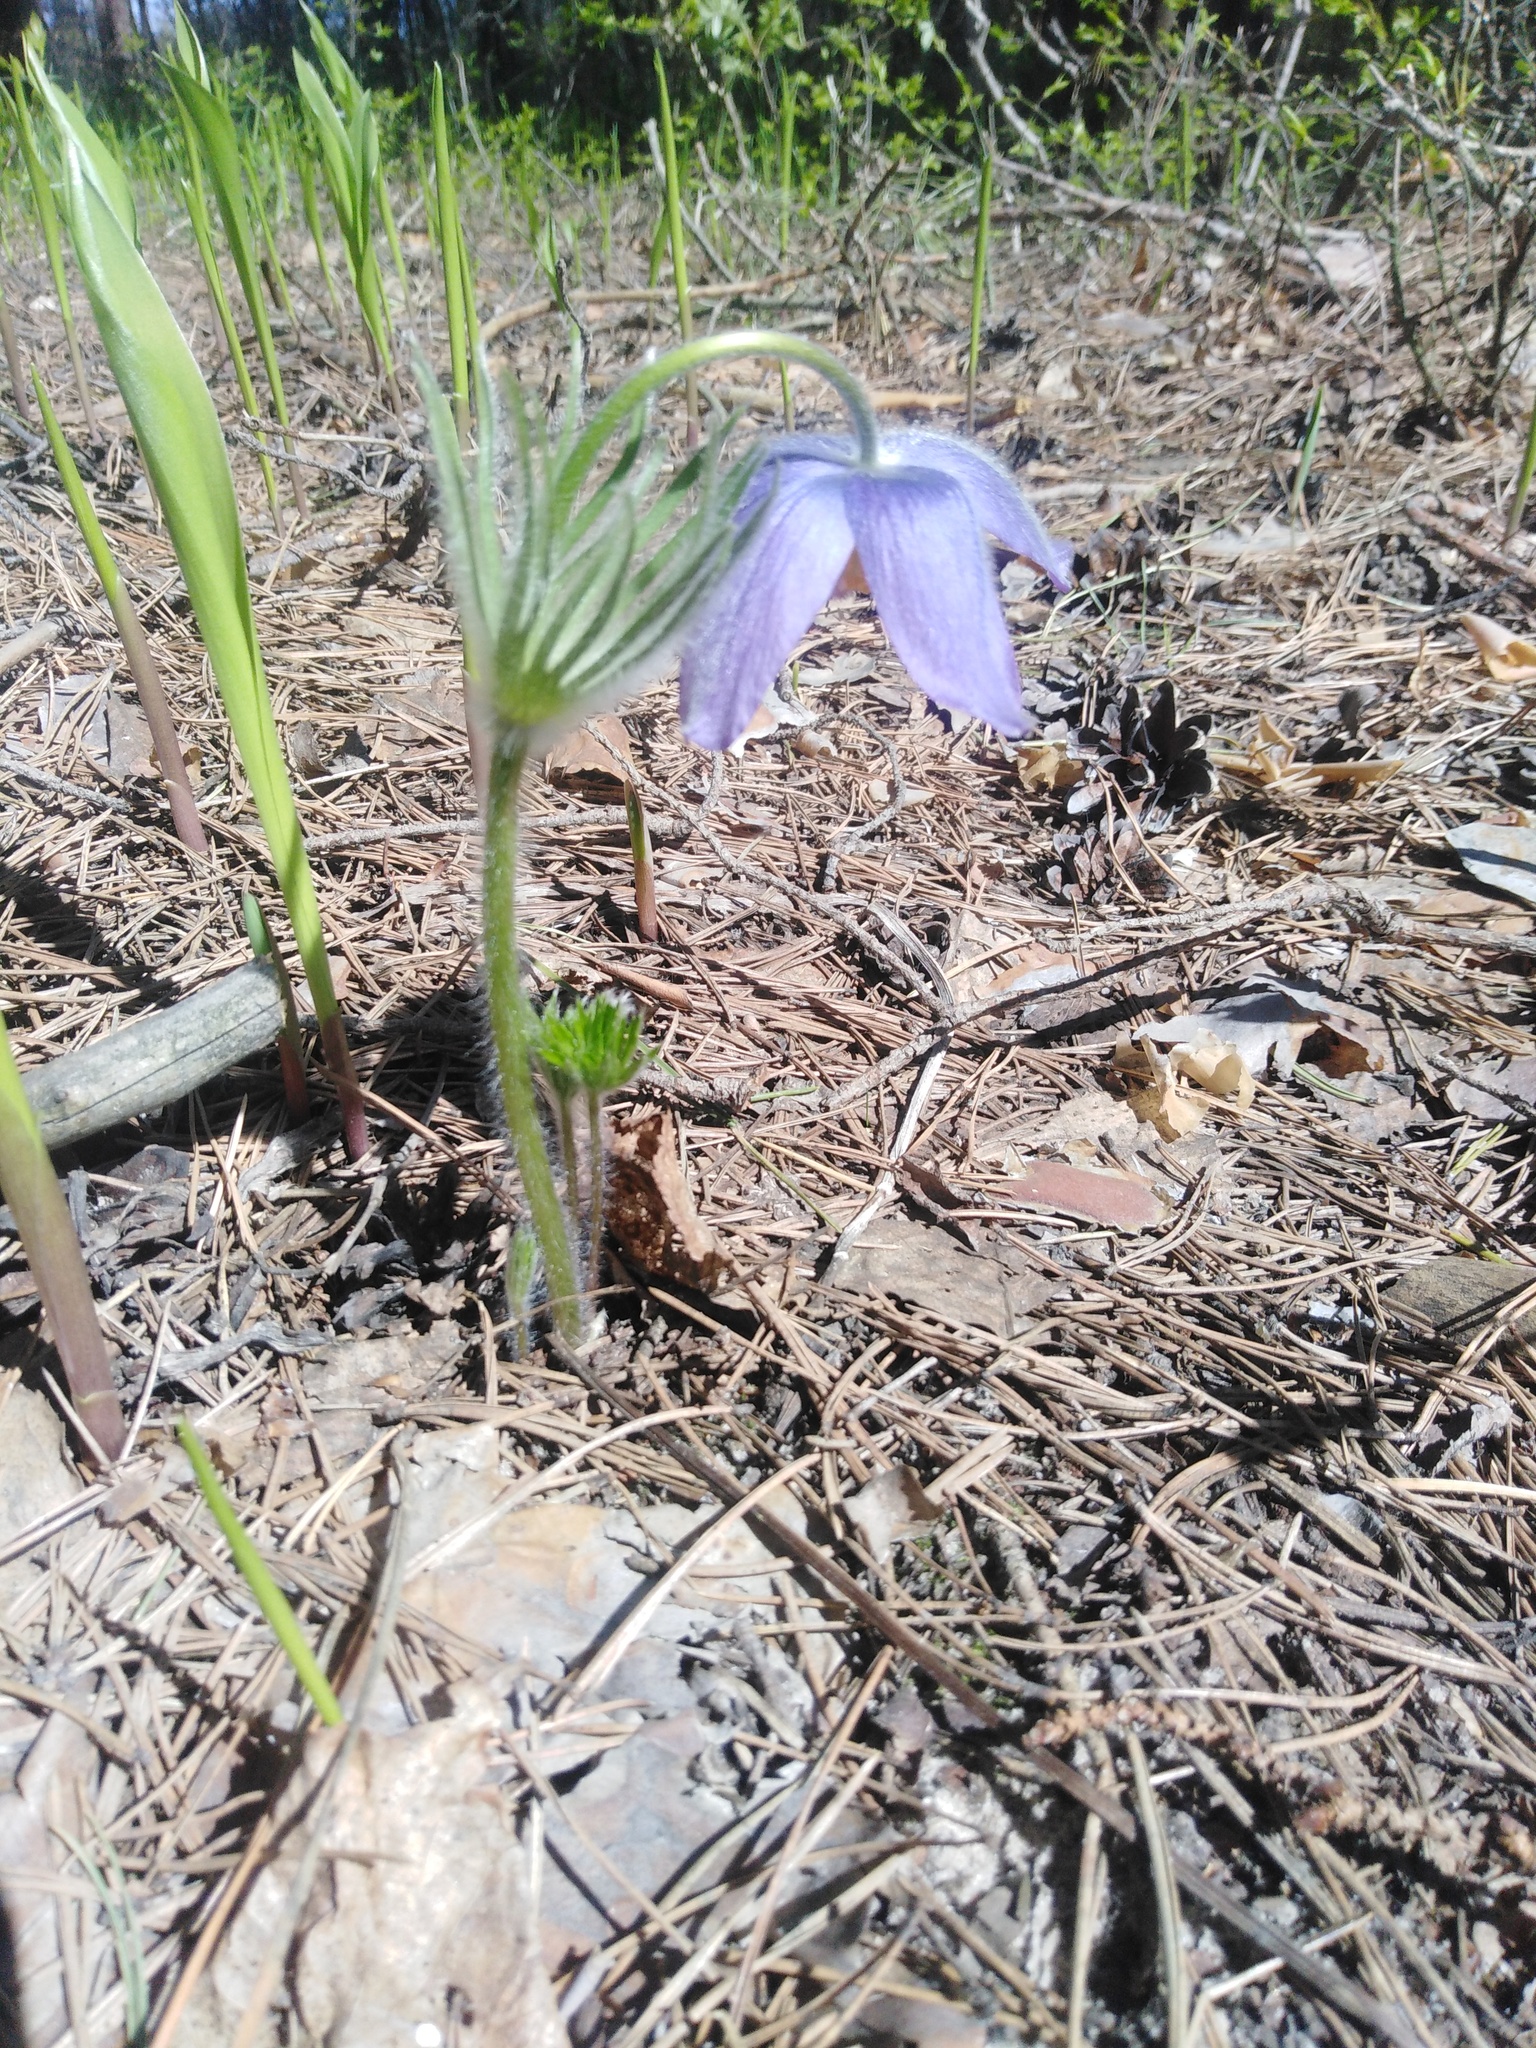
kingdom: Plantae
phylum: Tracheophyta
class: Magnoliopsida
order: Ranunculales
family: Ranunculaceae
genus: Pulsatilla
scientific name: Pulsatilla patens
